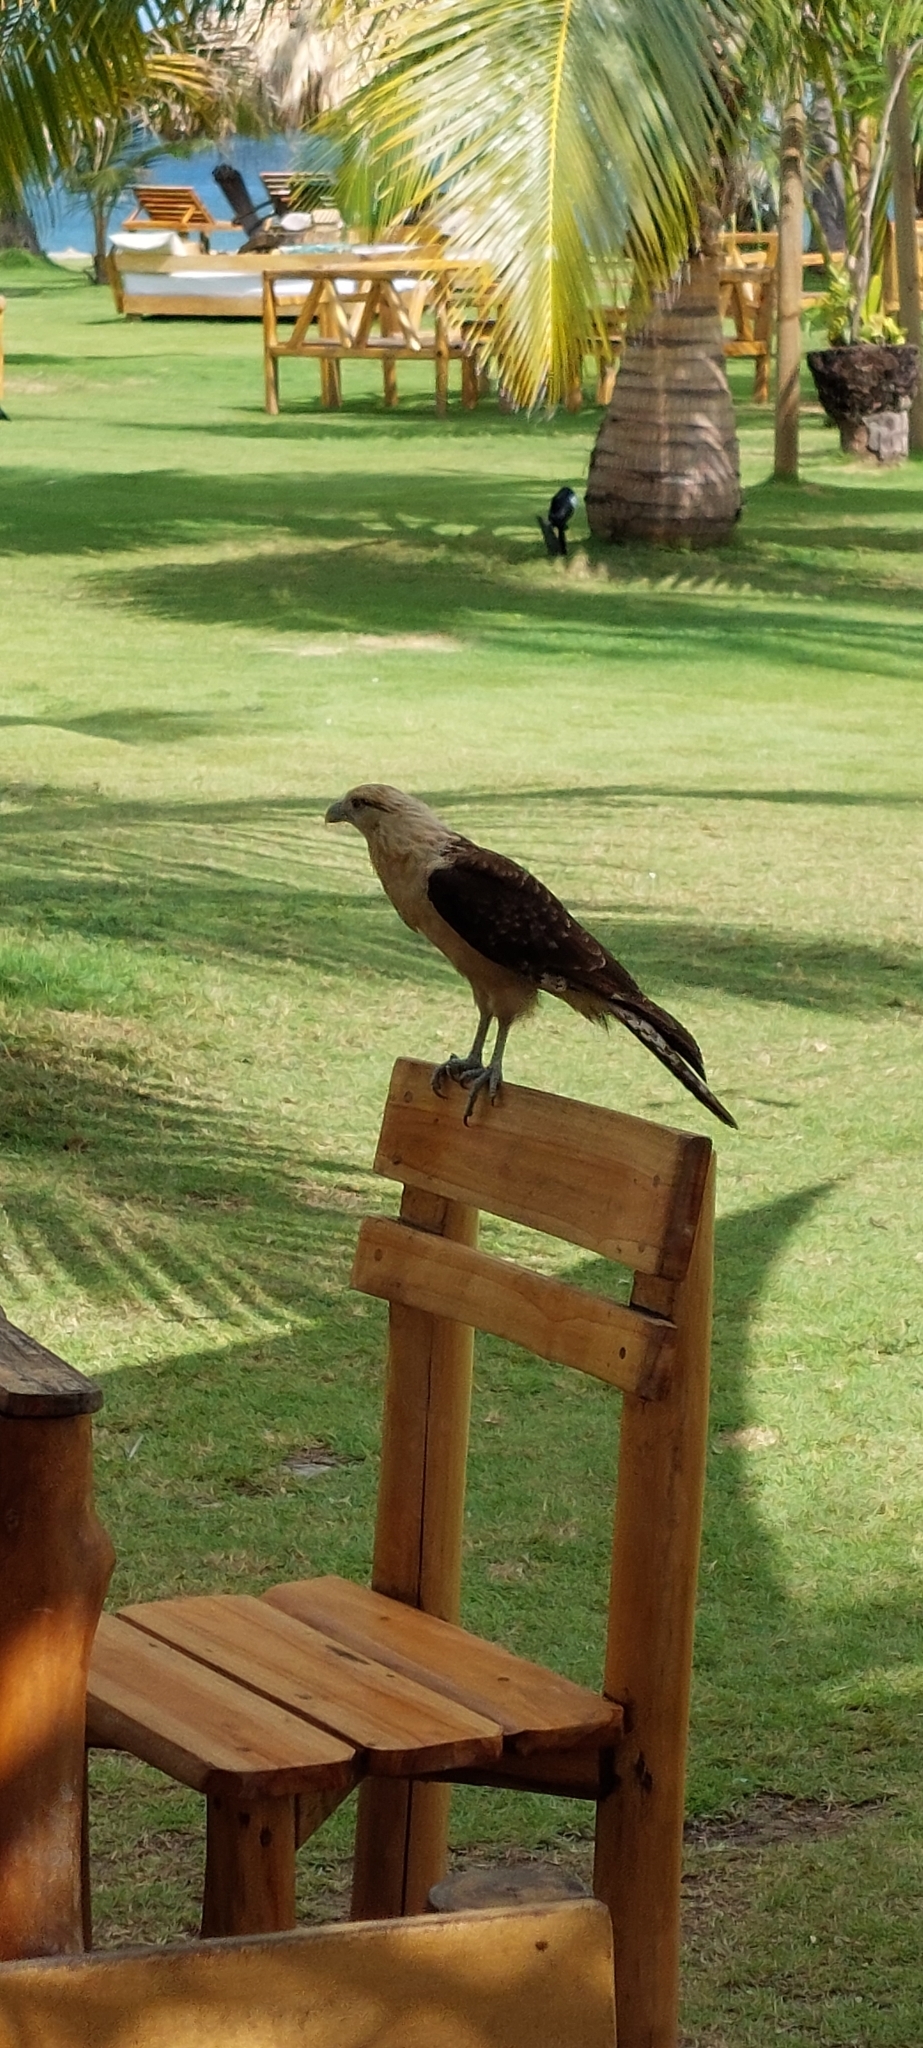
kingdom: Animalia
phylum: Chordata
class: Aves
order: Falconiformes
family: Falconidae
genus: Daptrius
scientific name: Daptrius
